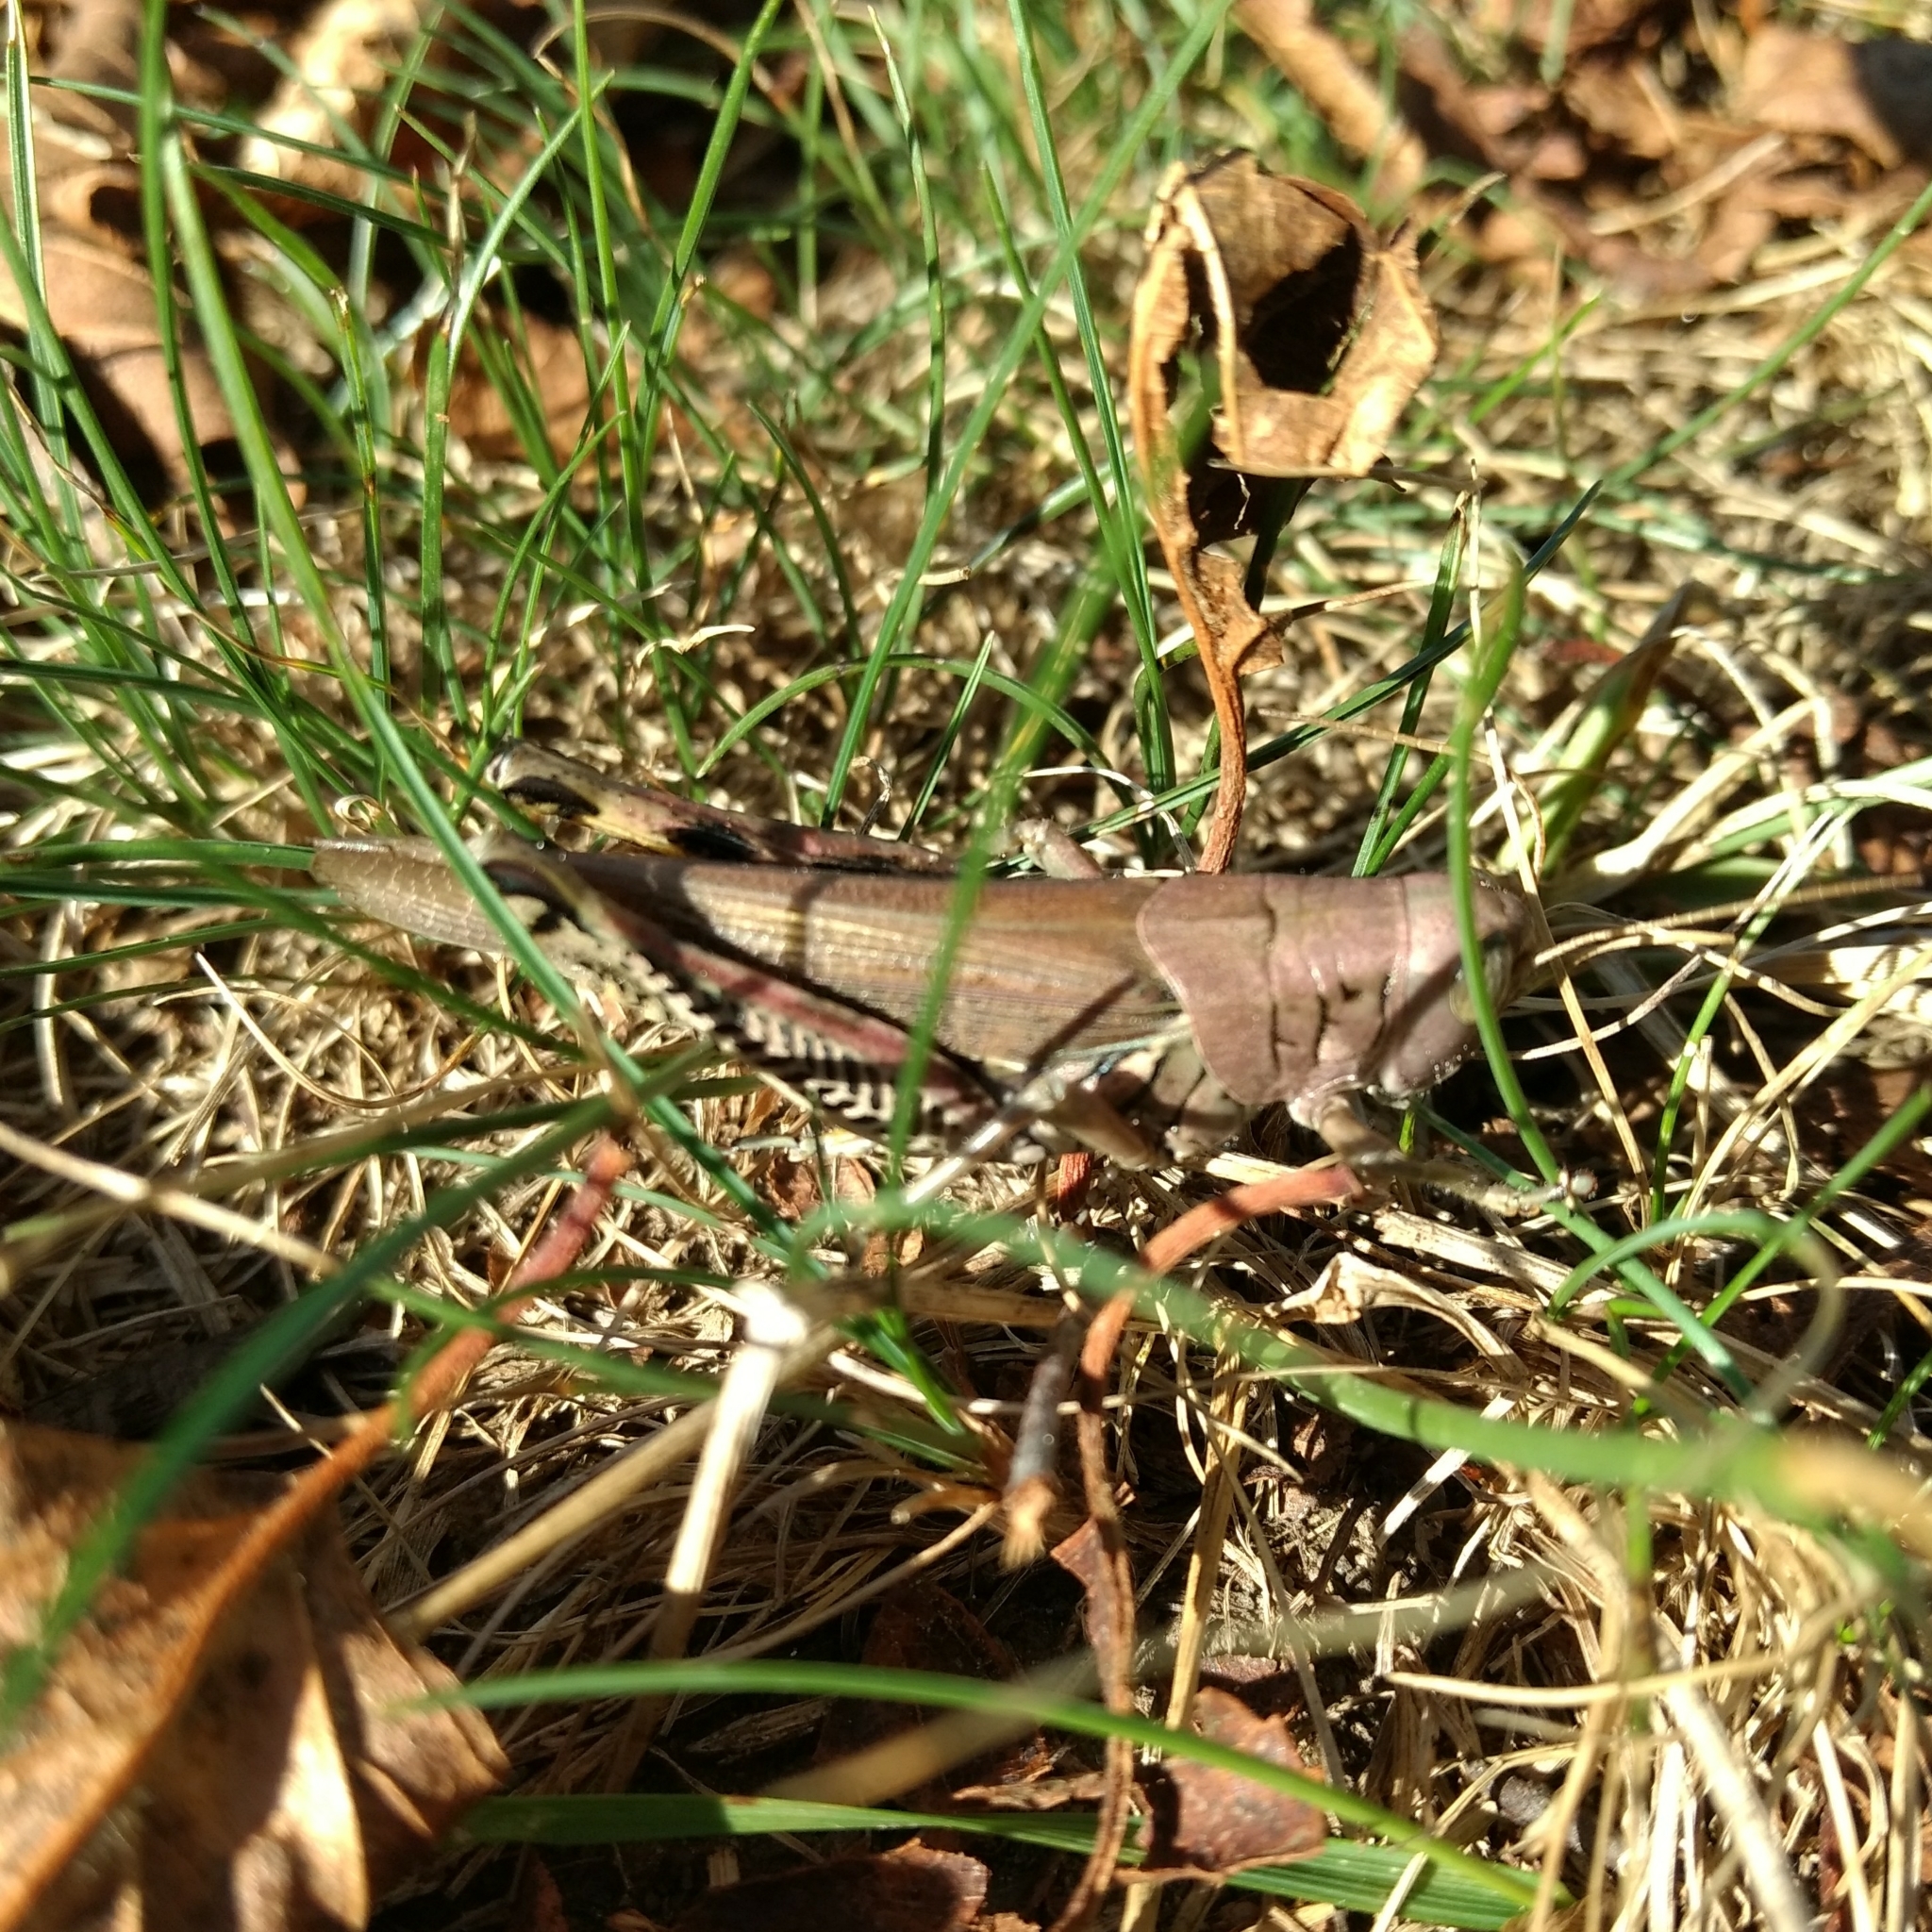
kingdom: Animalia
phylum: Arthropoda
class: Insecta
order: Orthoptera
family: Acrididae
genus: Melanoplus
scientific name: Melanoplus differentialis
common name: Differential grasshopper
